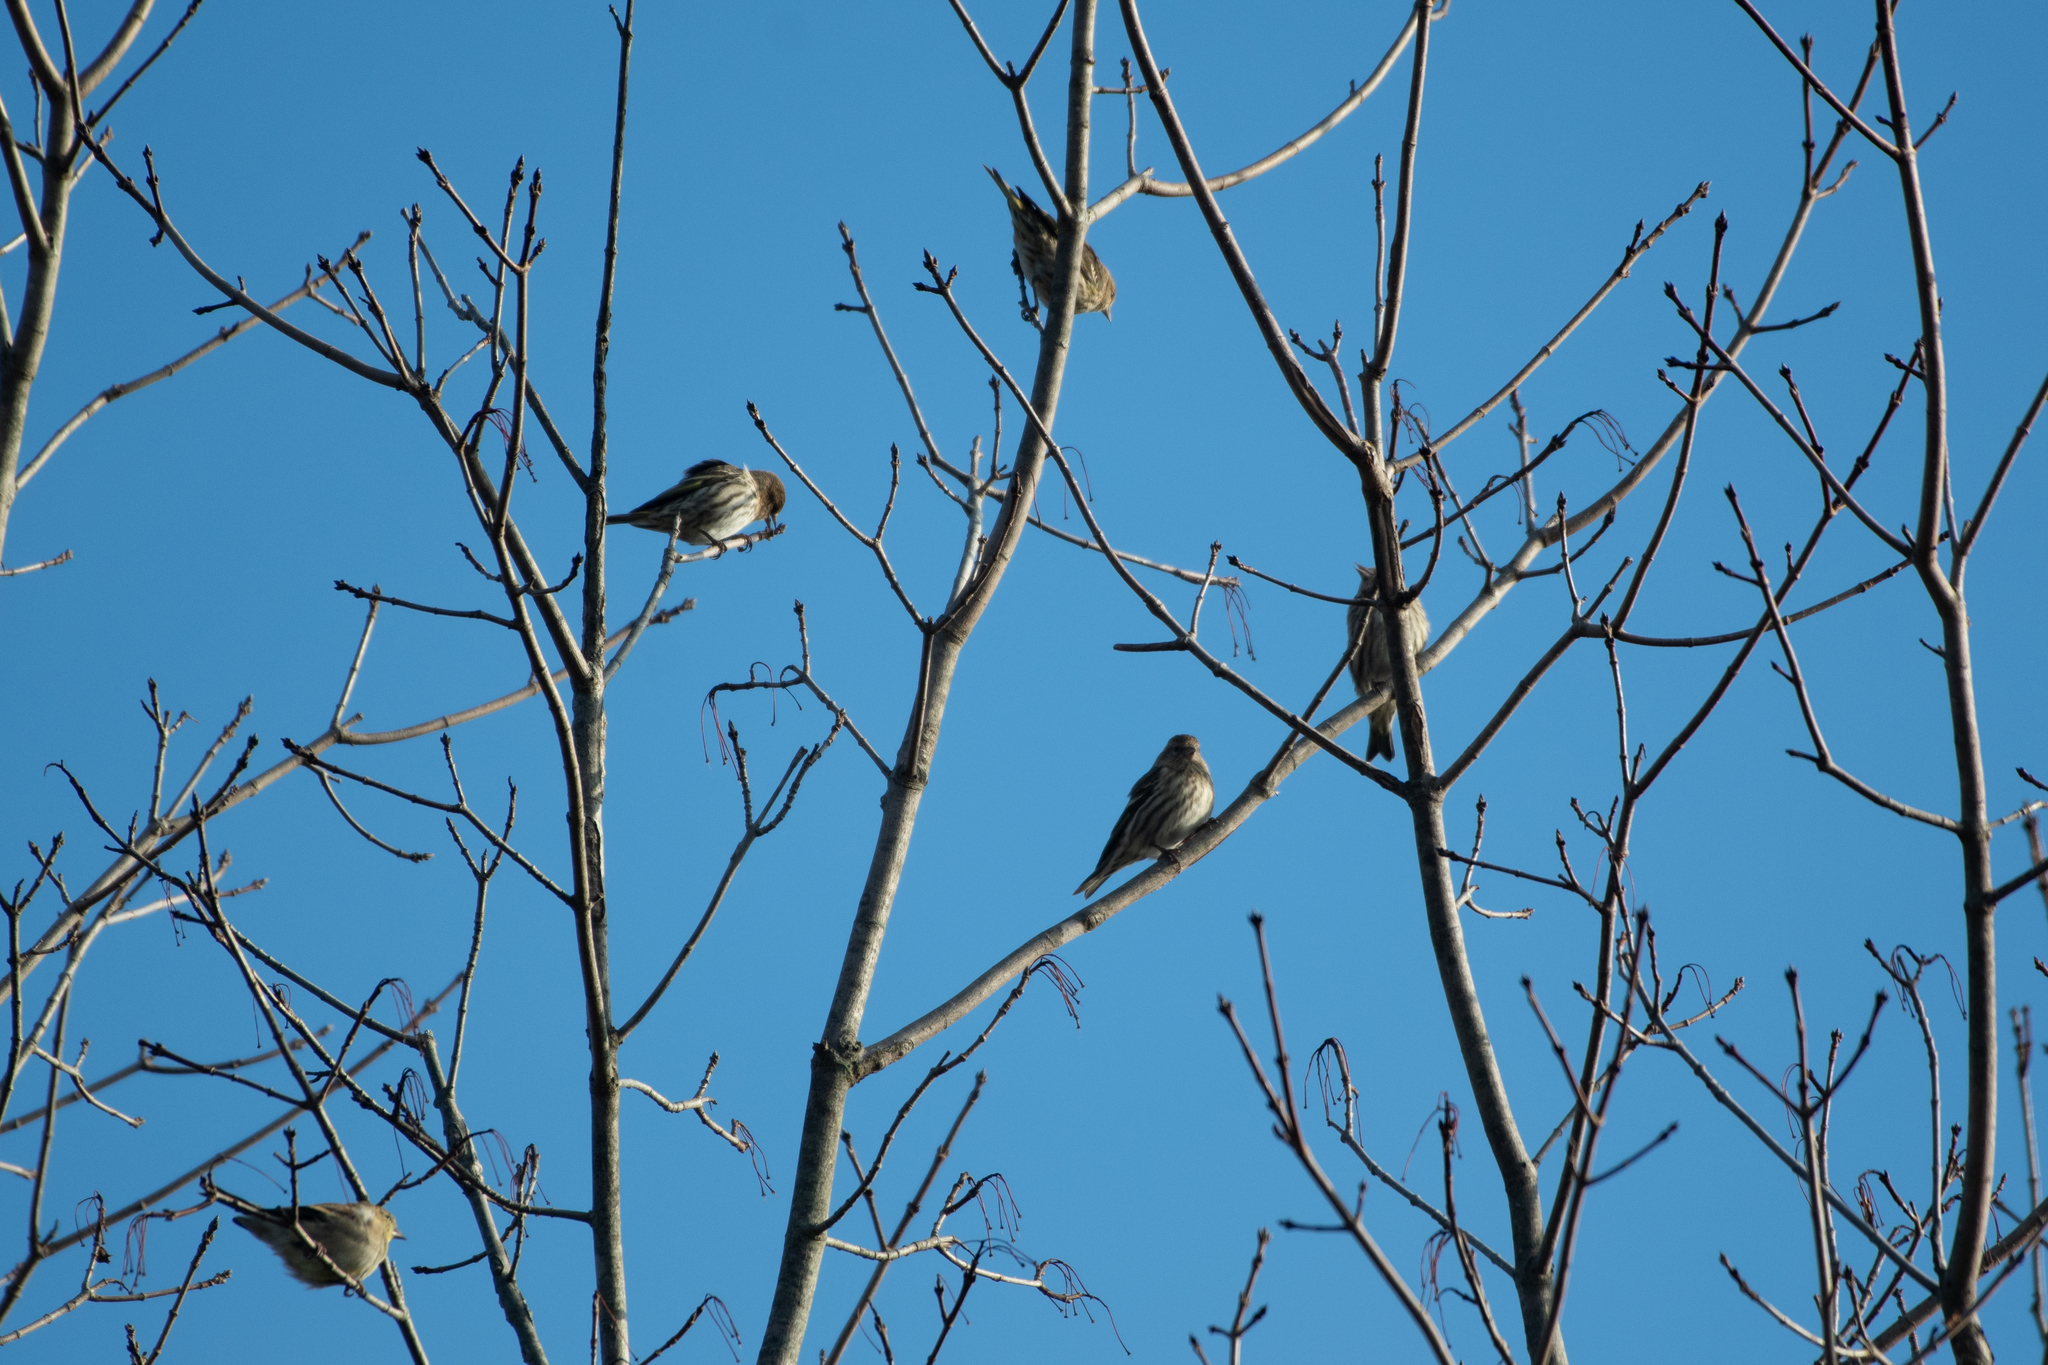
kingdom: Animalia
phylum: Chordata
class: Aves
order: Passeriformes
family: Fringillidae
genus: Spinus
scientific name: Spinus pinus
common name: Pine siskin
